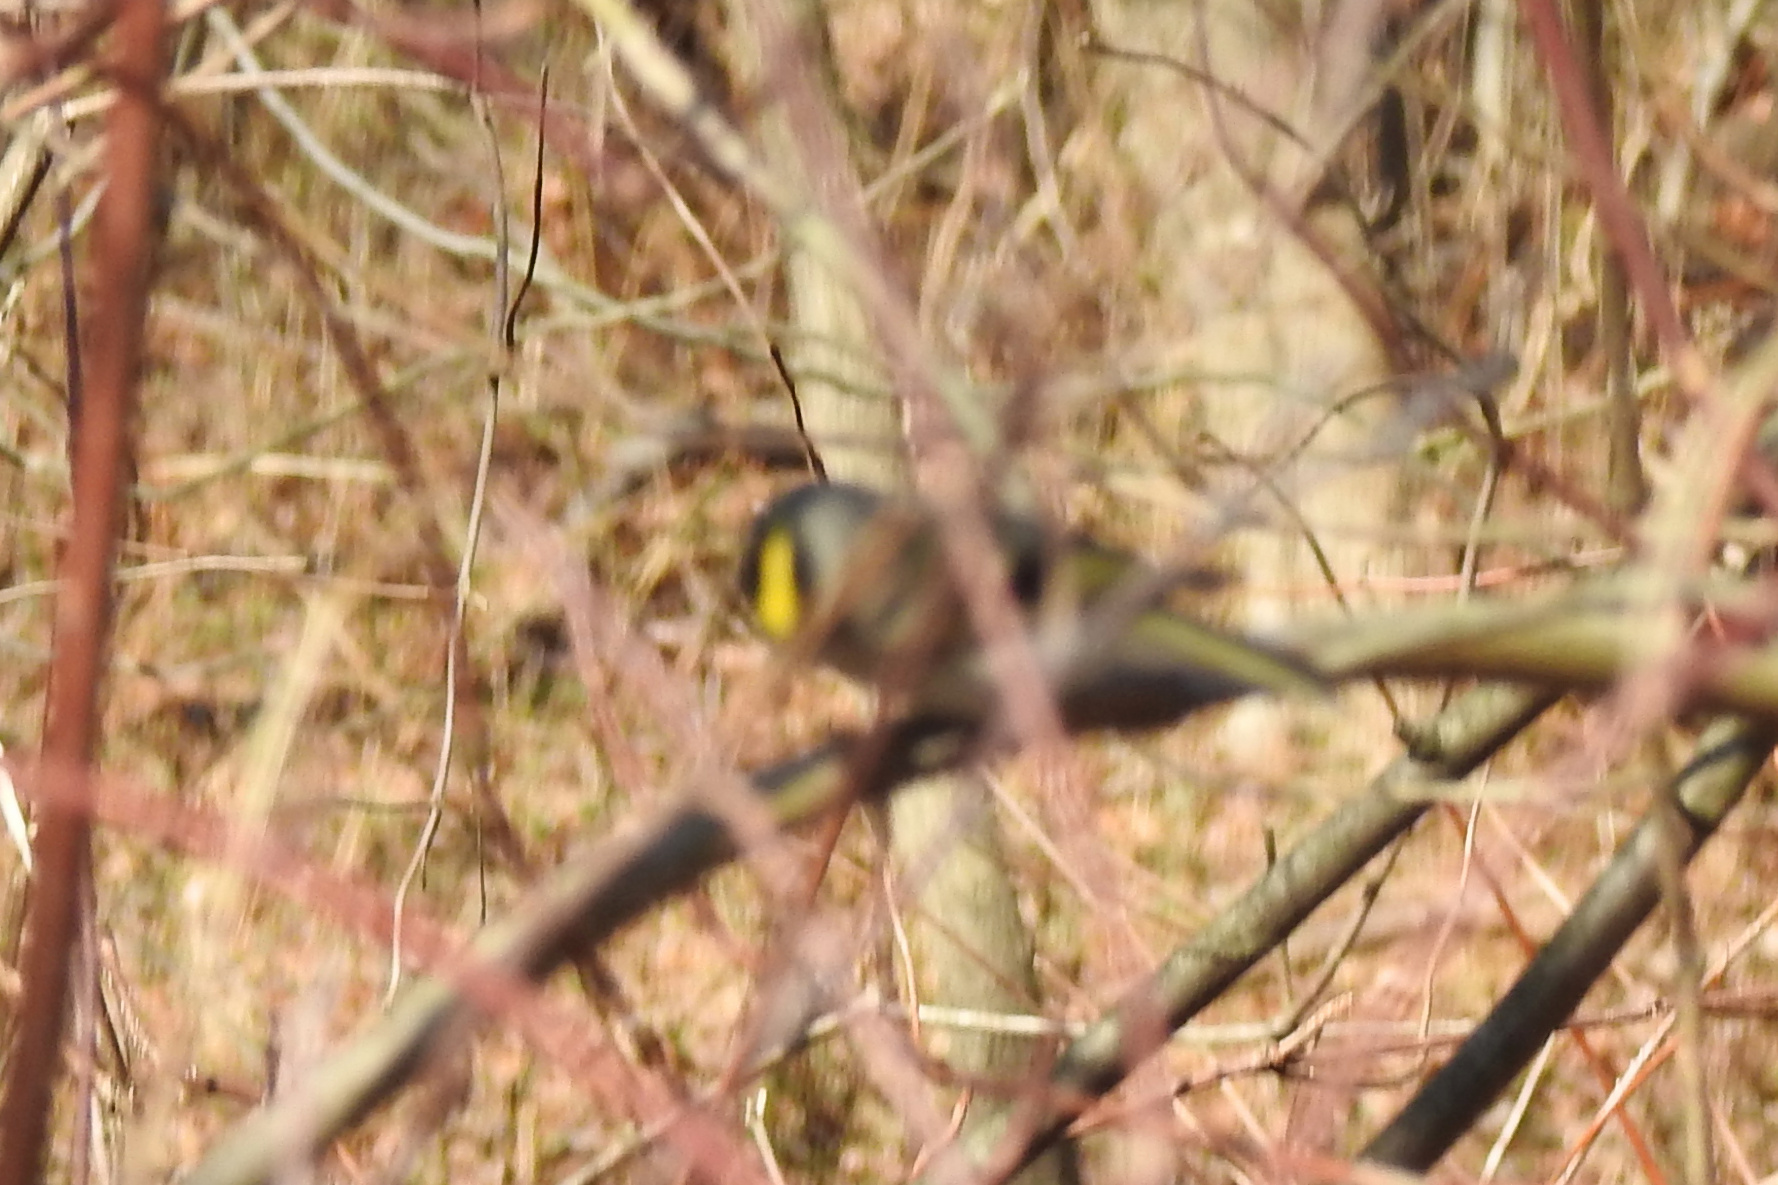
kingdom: Animalia
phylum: Chordata
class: Aves
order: Passeriformes
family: Regulidae
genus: Regulus
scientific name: Regulus satrapa
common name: Golden-crowned kinglet
